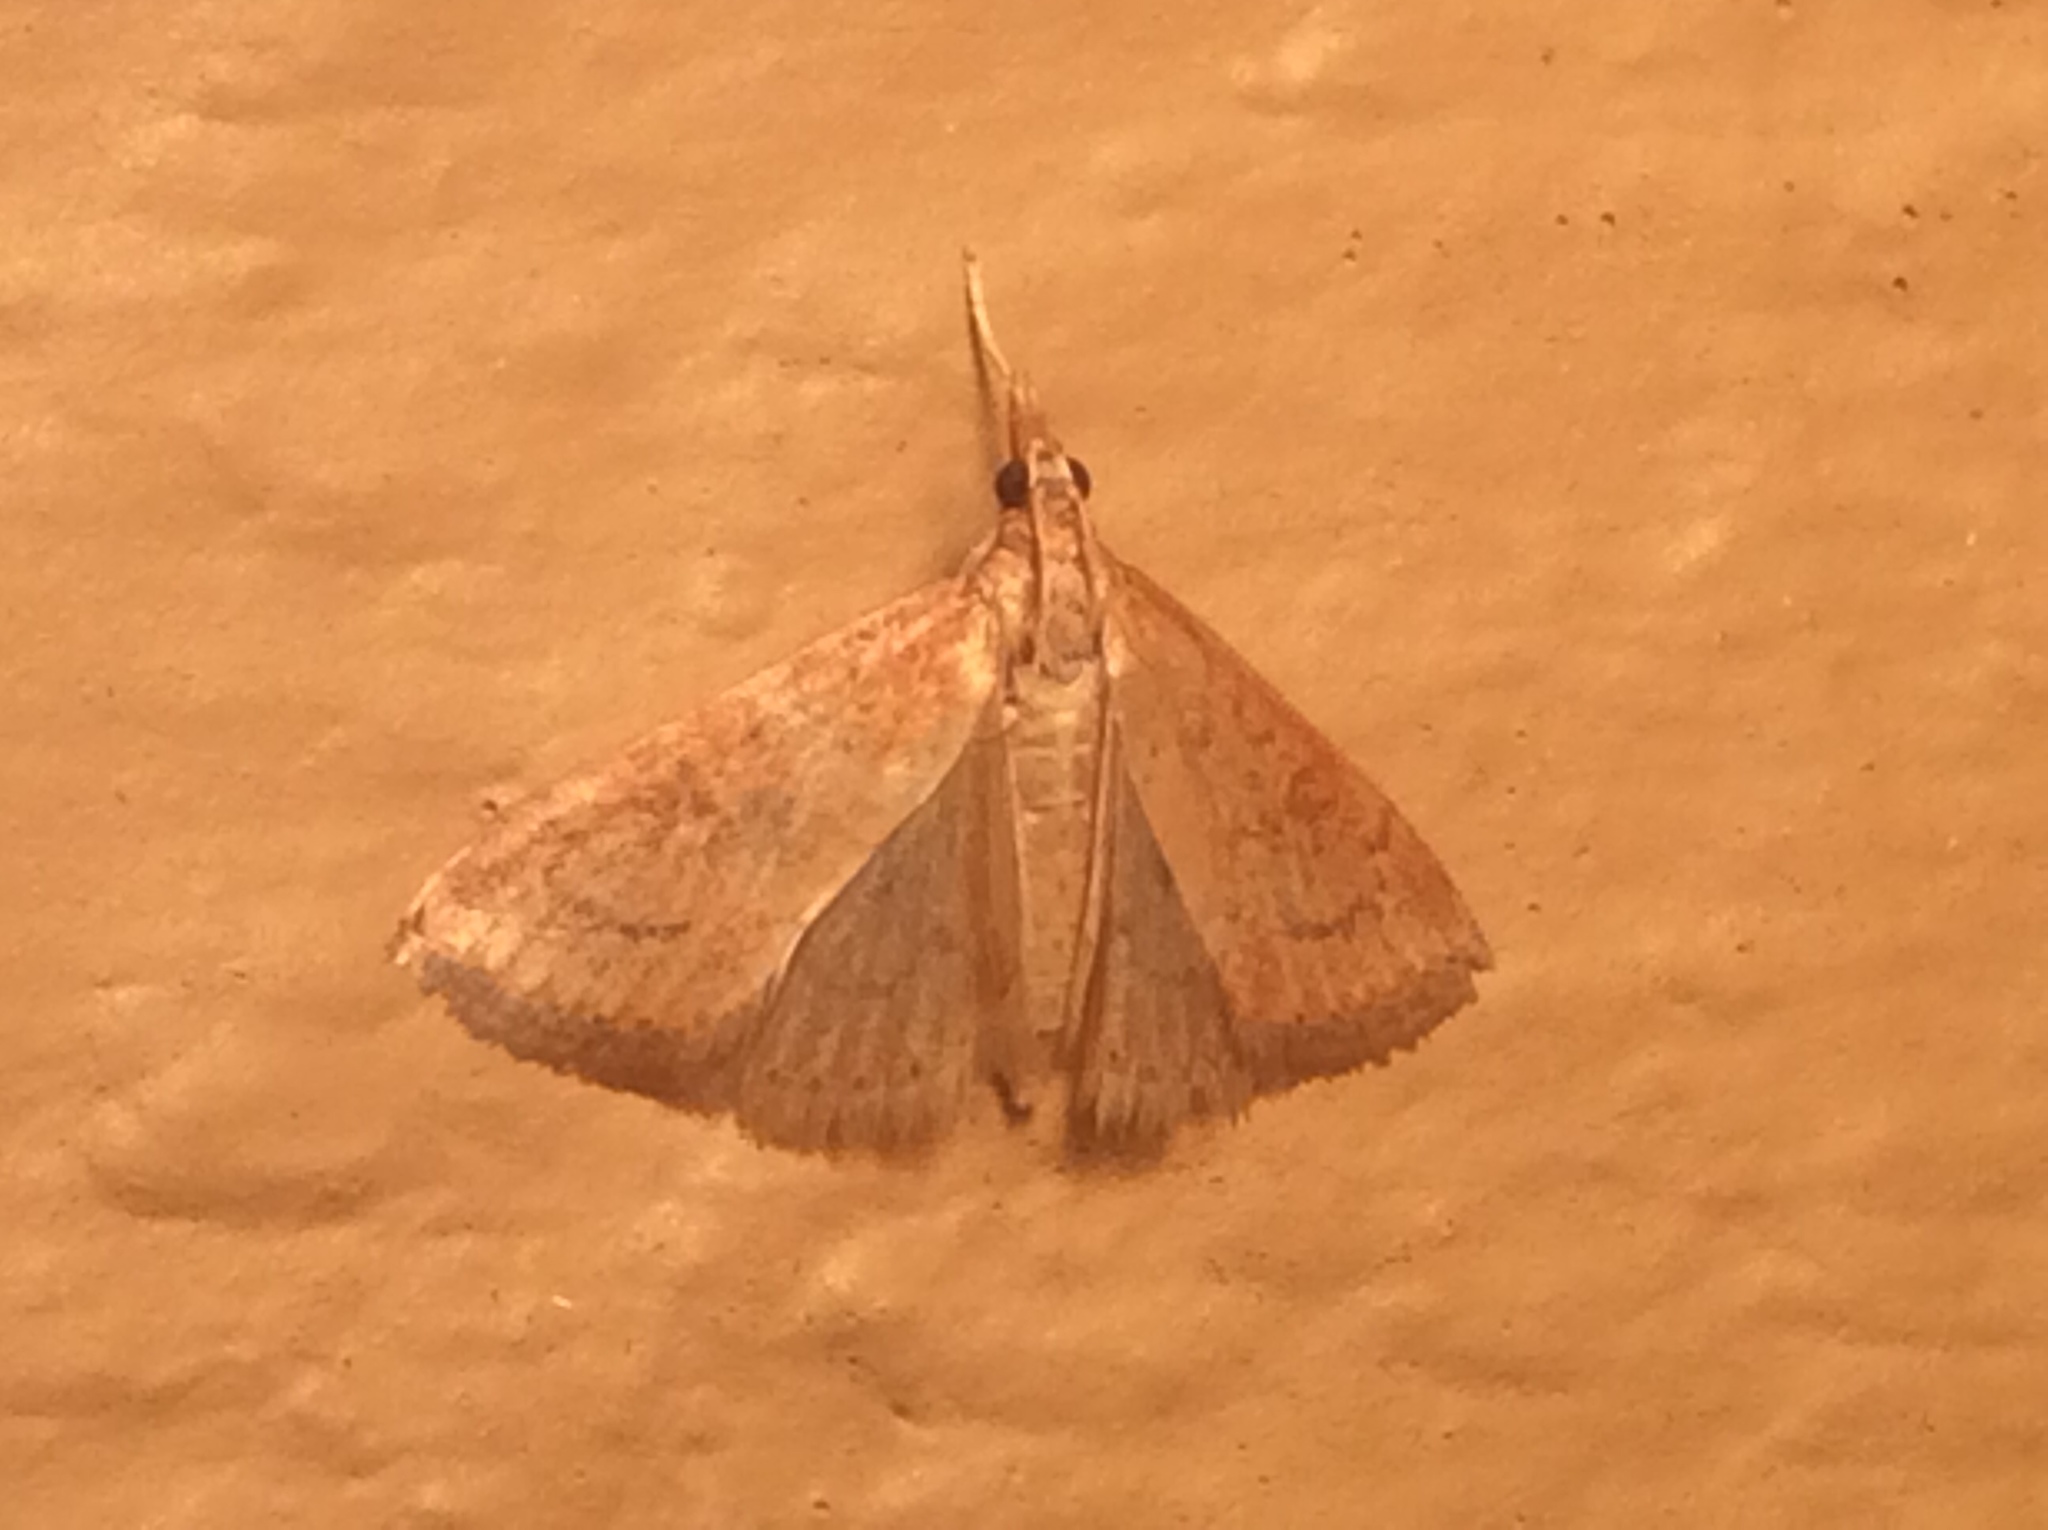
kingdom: Animalia
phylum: Arthropoda
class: Insecta
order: Lepidoptera
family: Crambidae
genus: Udea
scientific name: Udea rubigalis
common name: Celery leaftier moth
